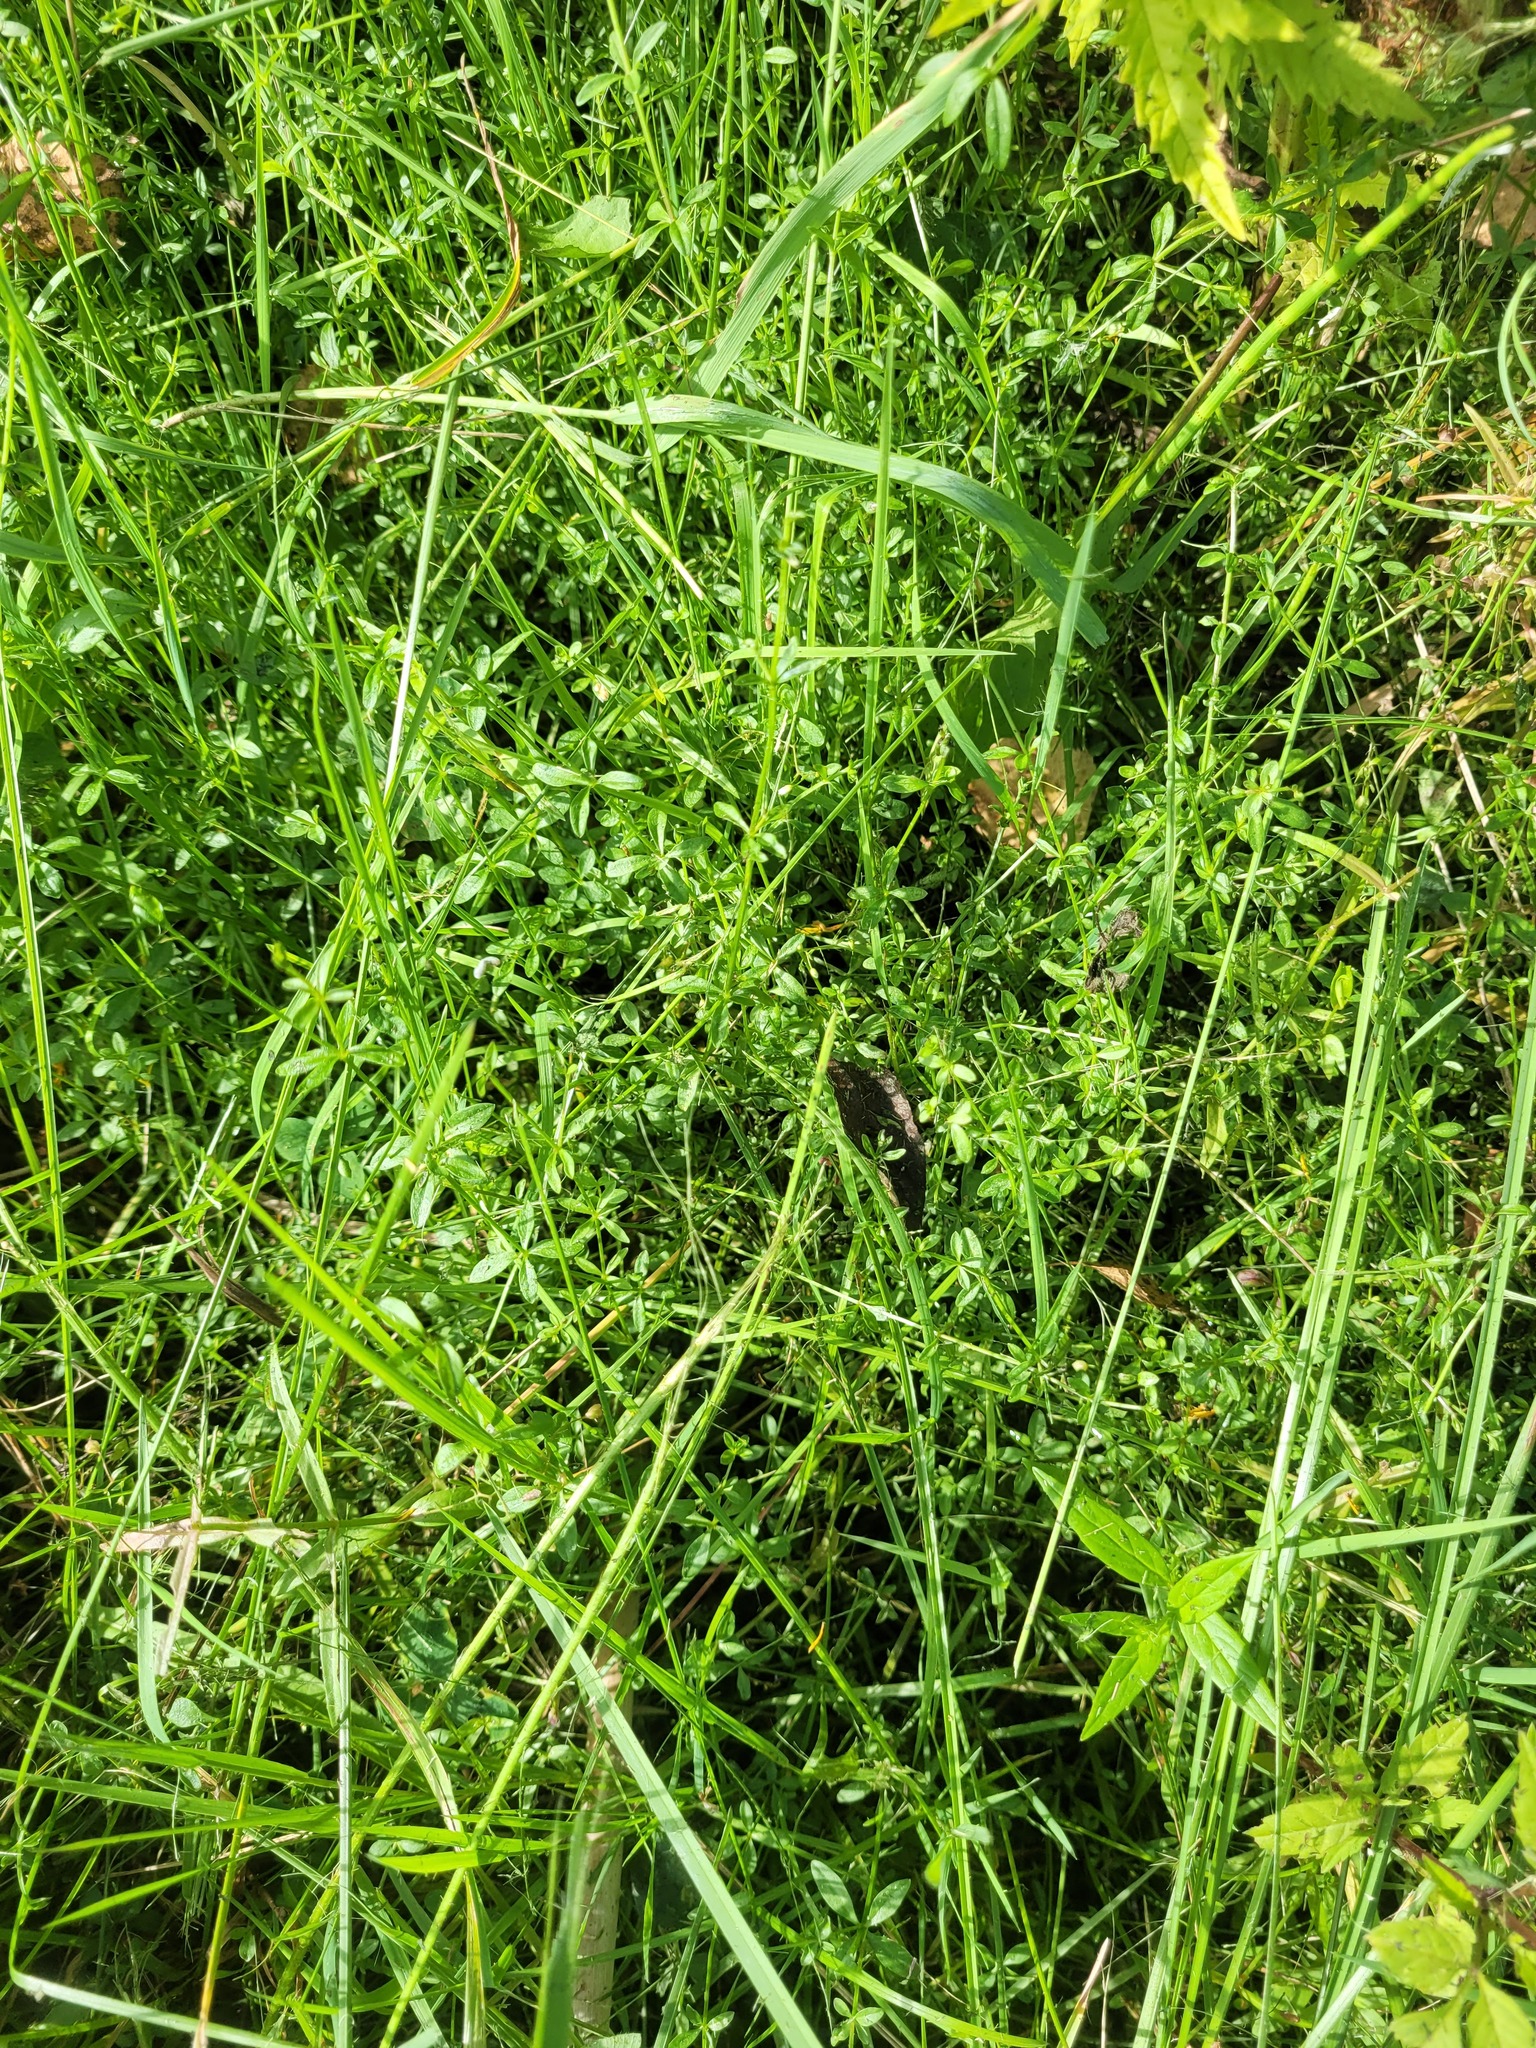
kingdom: Plantae
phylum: Tracheophyta
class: Magnoliopsida
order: Gentianales
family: Rubiaceae
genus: Galium
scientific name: Galium palustre
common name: Common marsh-bedstraw
